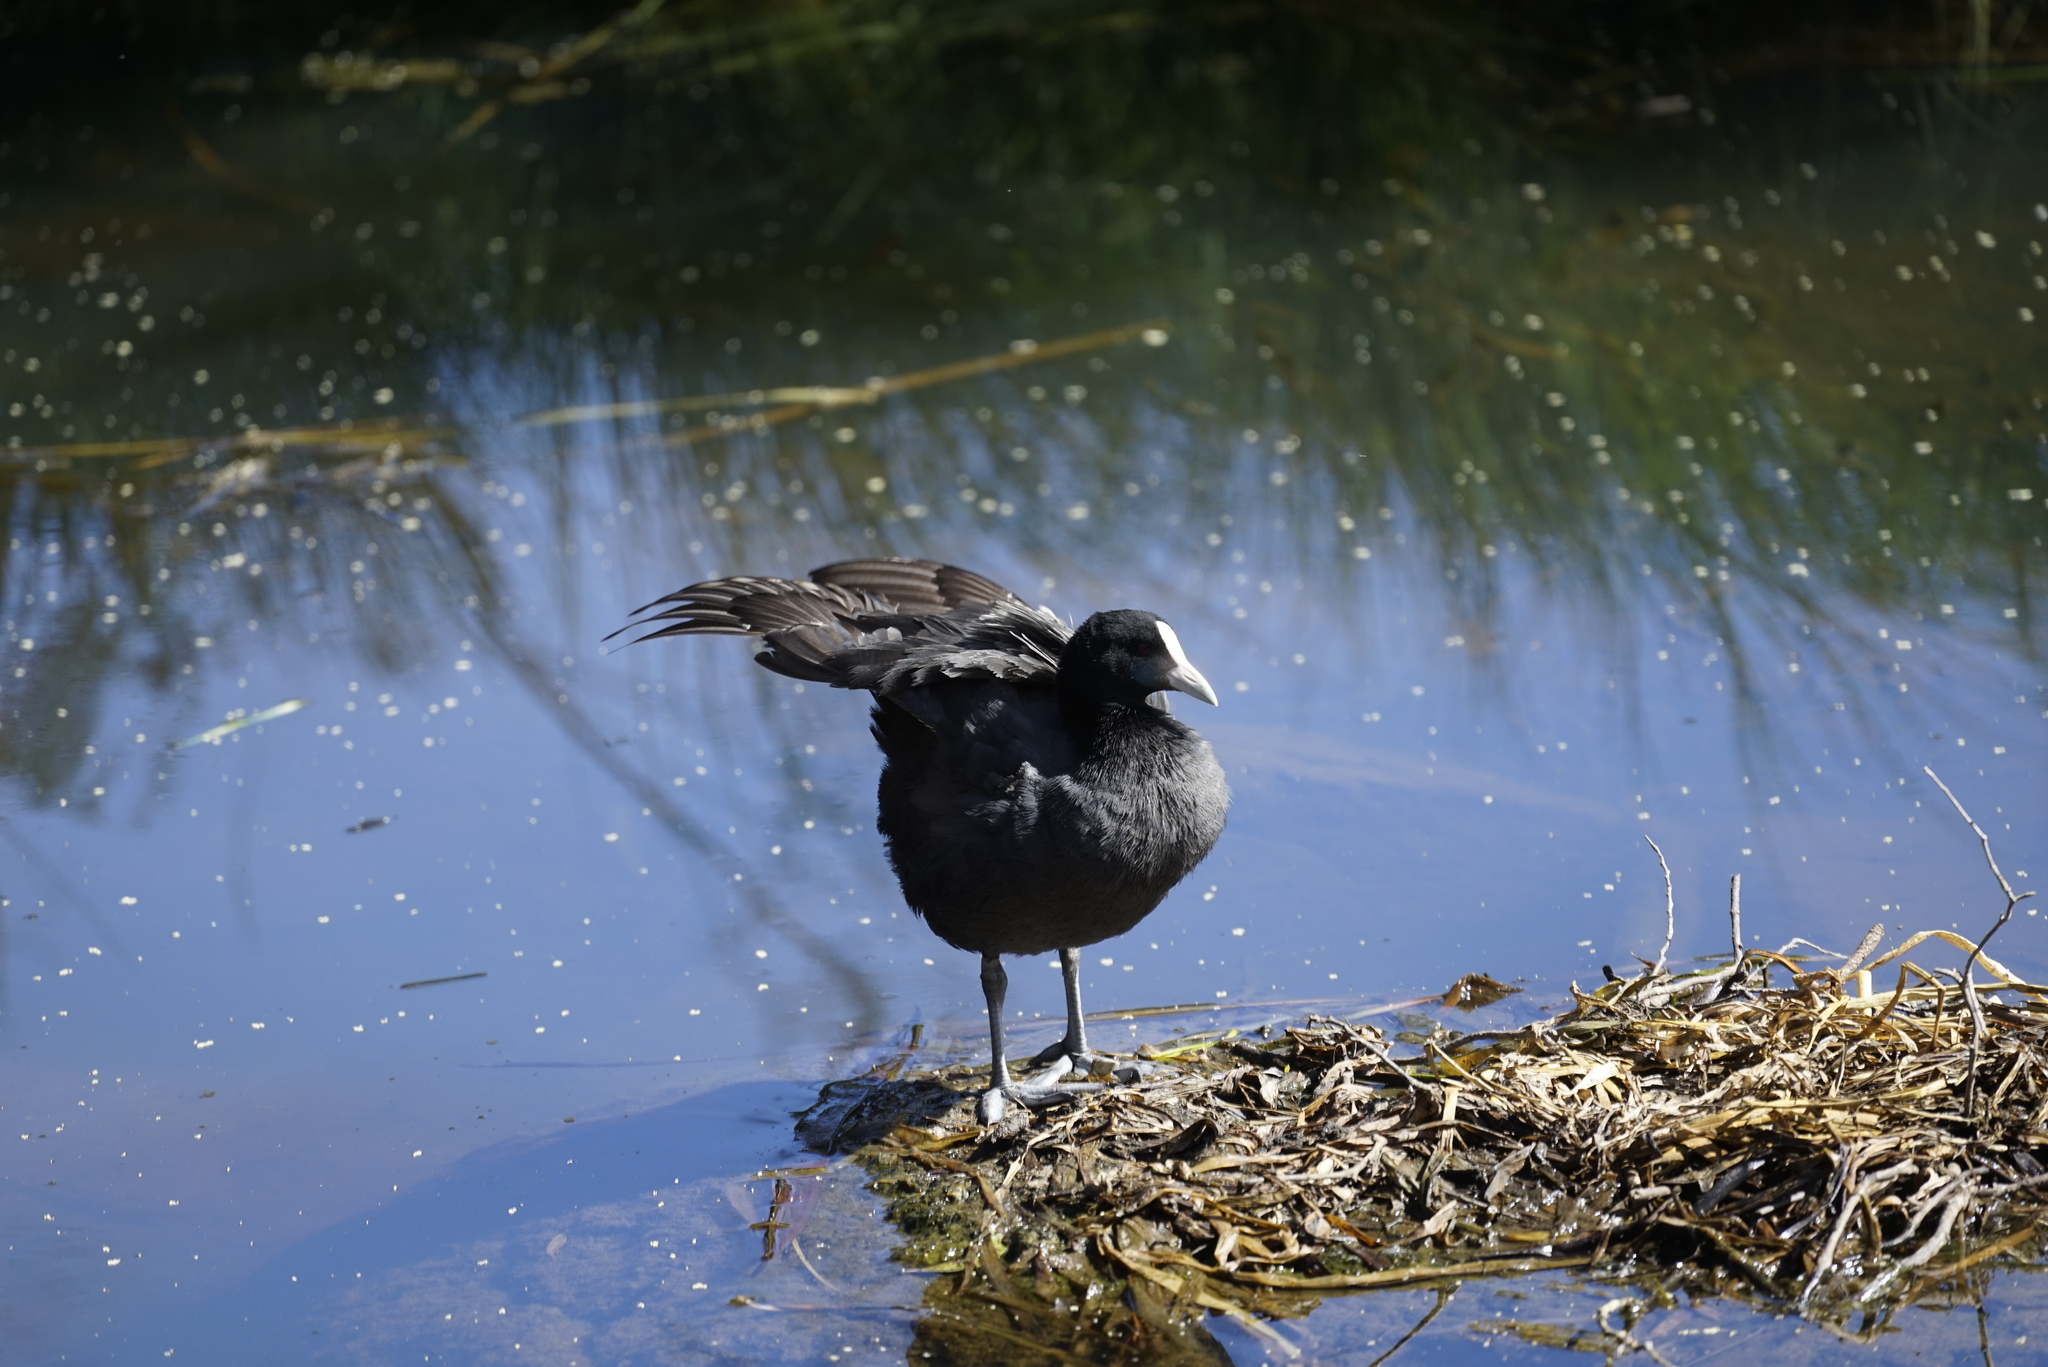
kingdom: Animalia
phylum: Chordata
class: Aves
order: Gruiformes
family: Rallidae
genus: Fulica
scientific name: Fulica atra
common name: Eurasian coot
